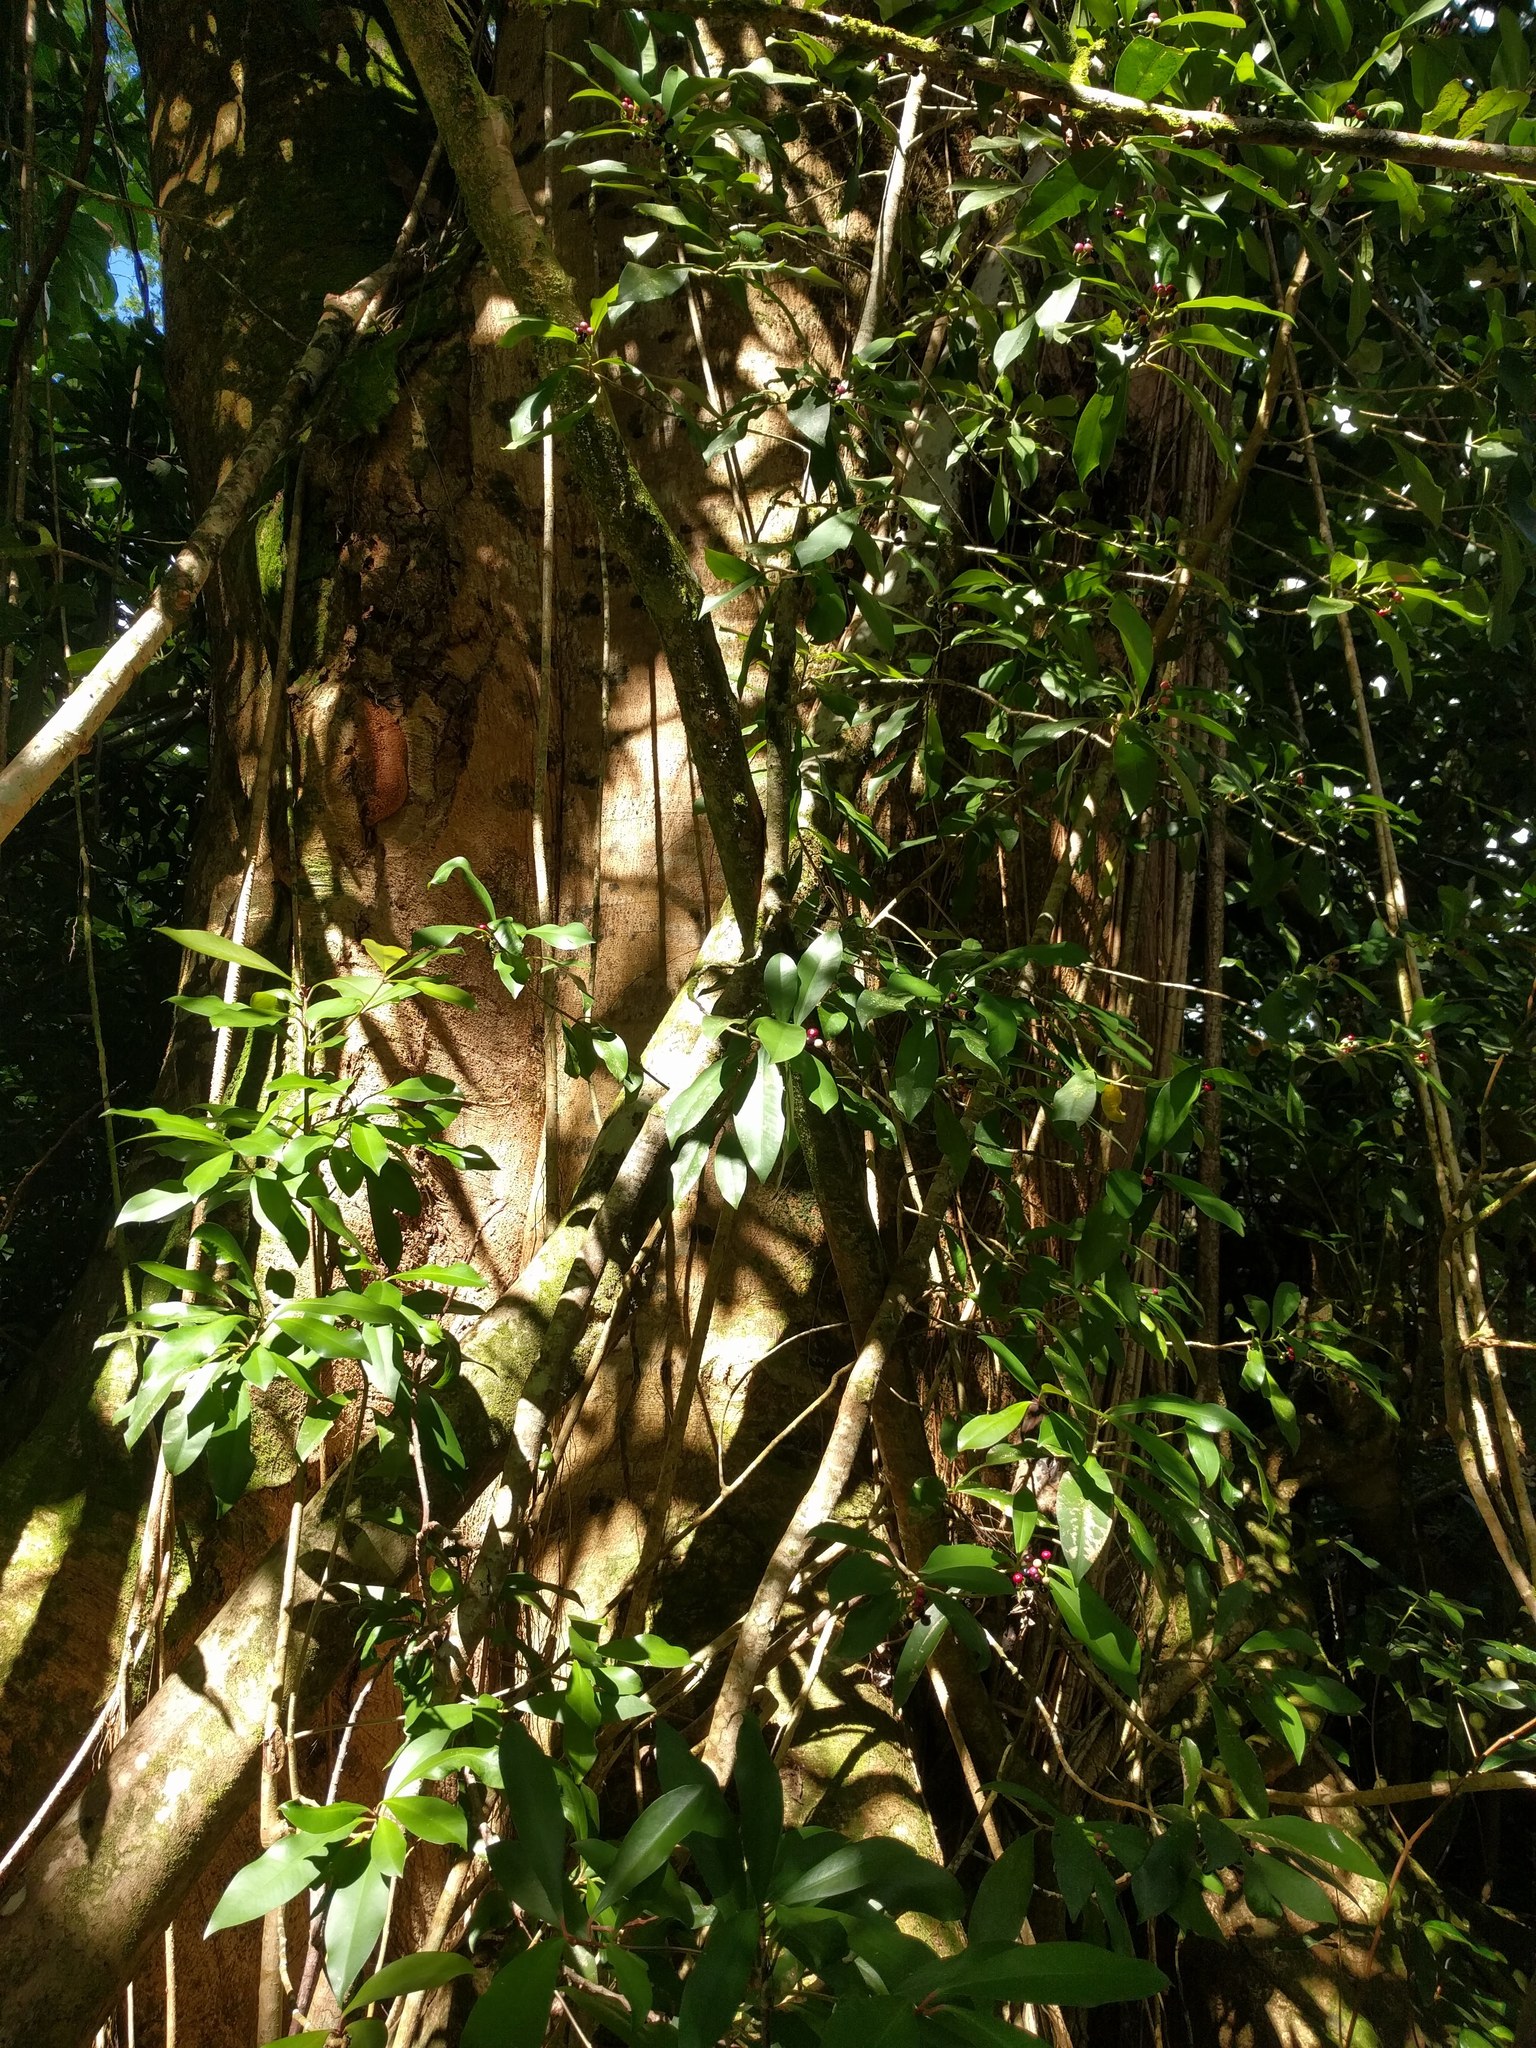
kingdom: Plantae
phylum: Tracheophyta
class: Magnoliopsida
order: Fabales
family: Fabaceae
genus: Falcataria
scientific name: Falcataria falcata
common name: Moluccan albizia
